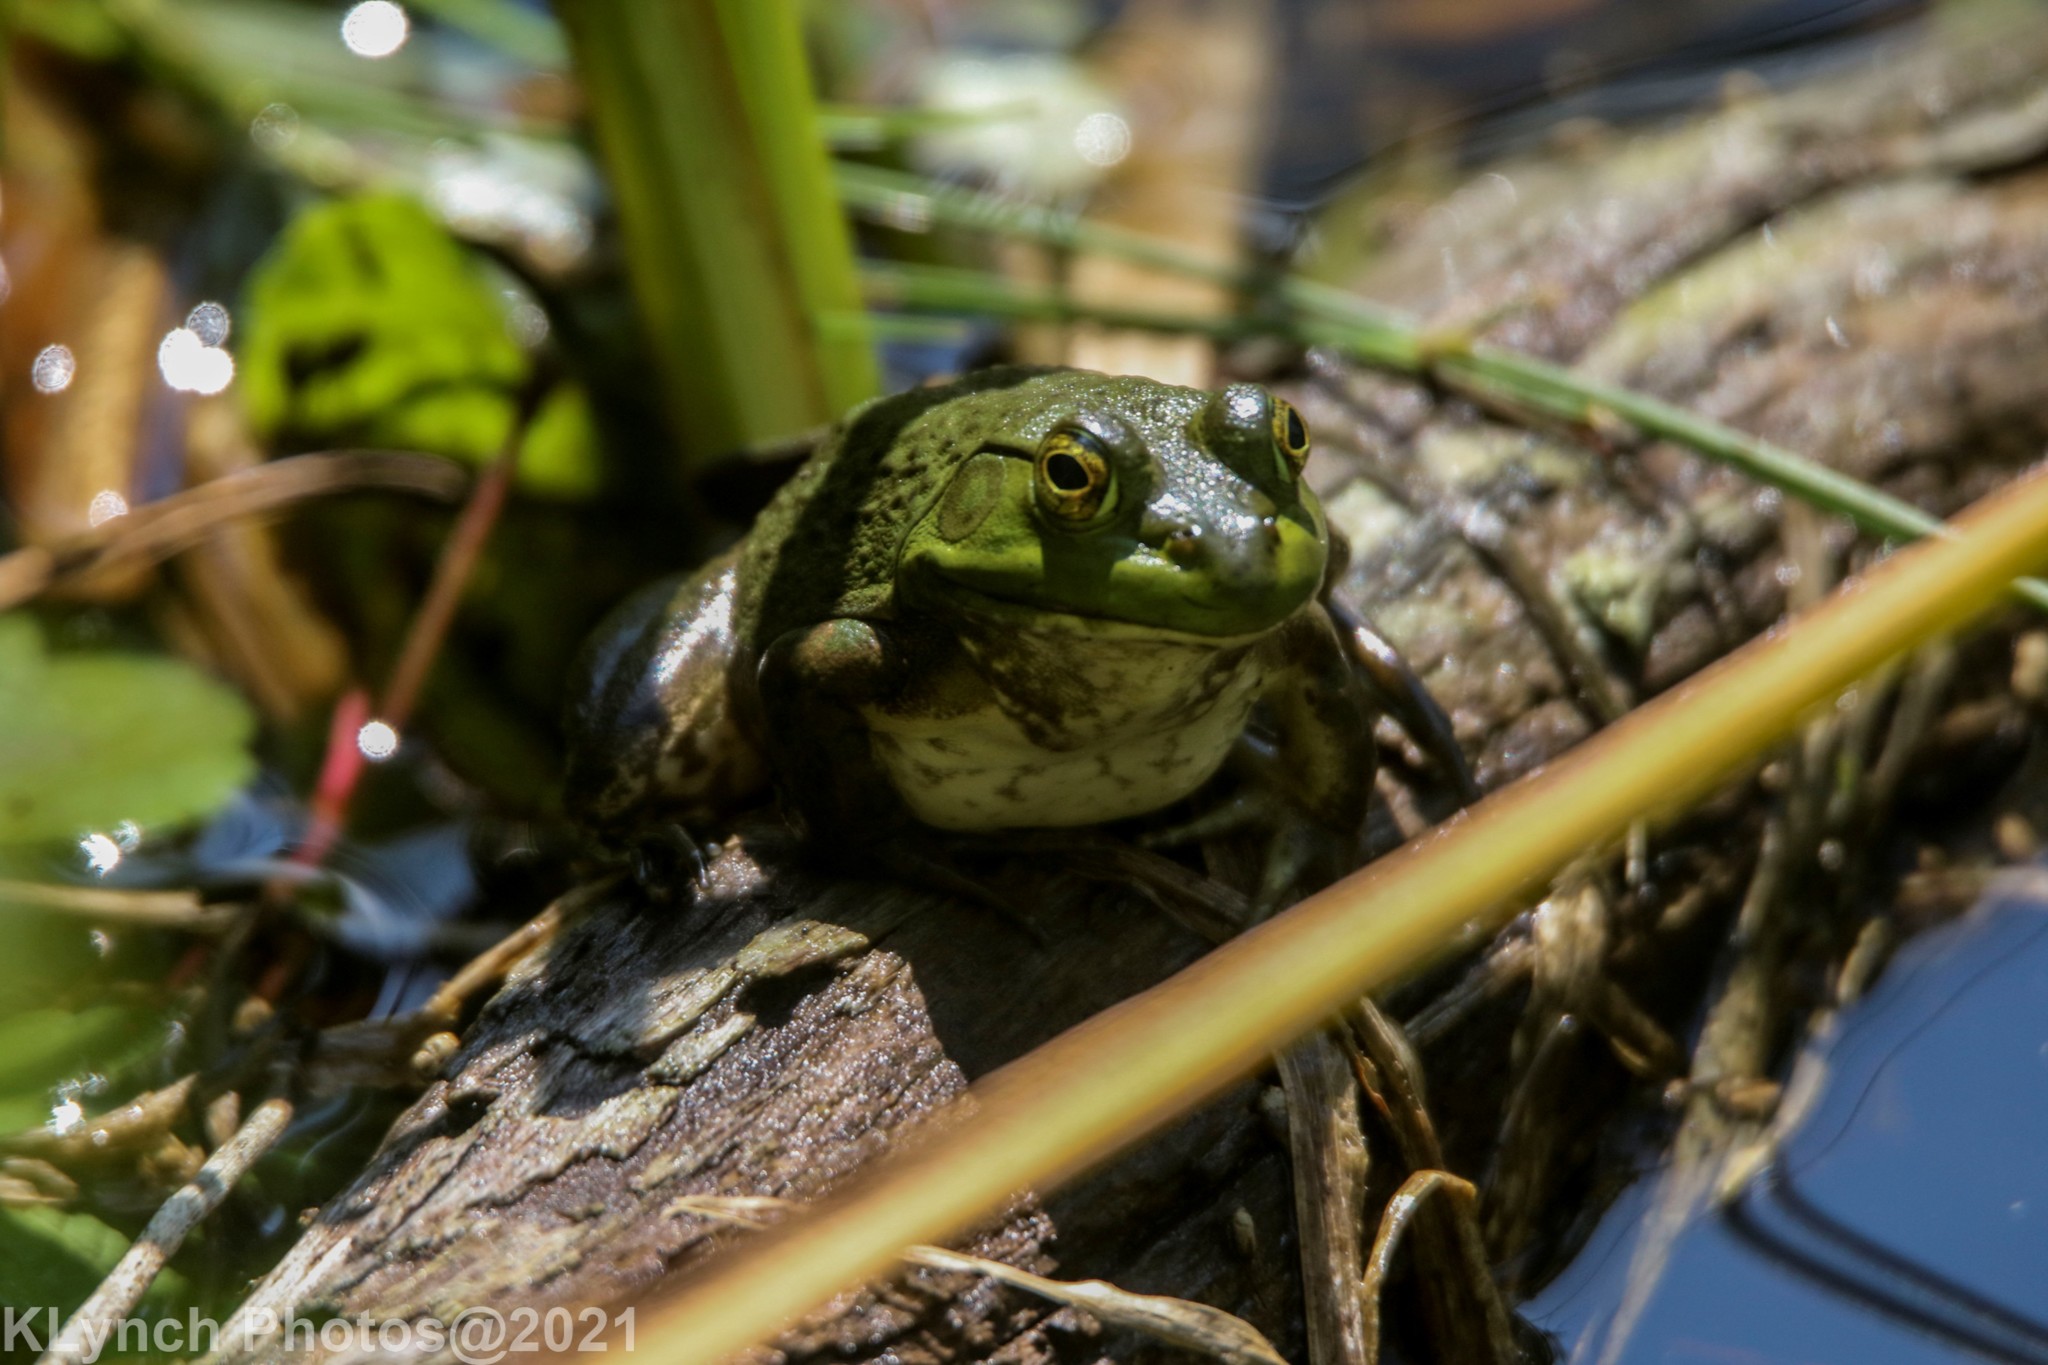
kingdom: Animalia
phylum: Chordata
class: Amphibia
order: Anura
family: Ranidae
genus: Lithobates
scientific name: Lithobates catesbeianus
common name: American bullfrog
